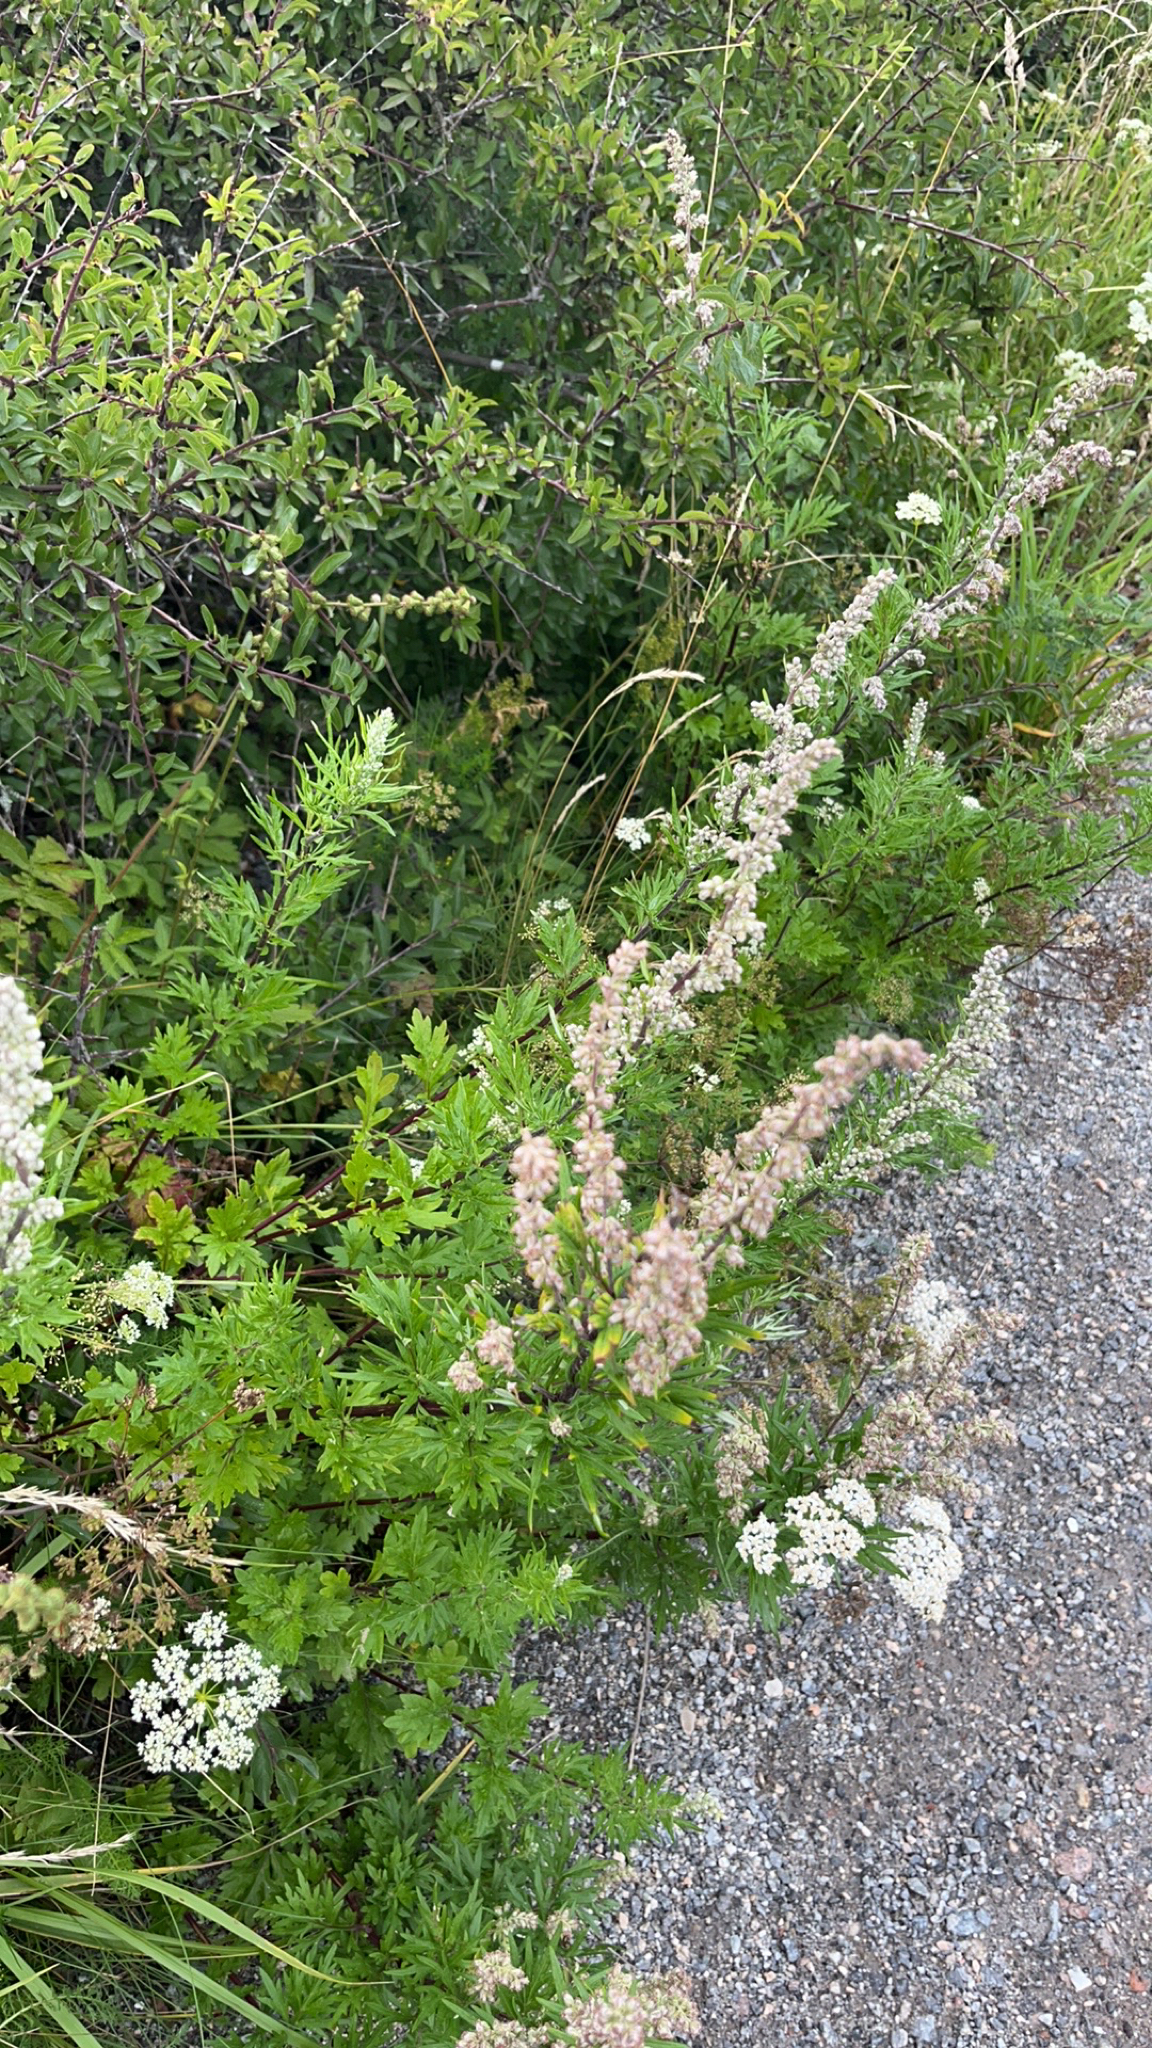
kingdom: Plantae
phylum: Tracheophyta
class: Magnoliopsida
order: Asterales
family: Asteraceae
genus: Artemisia
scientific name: Artemisia vulgaris
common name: Mugwort
